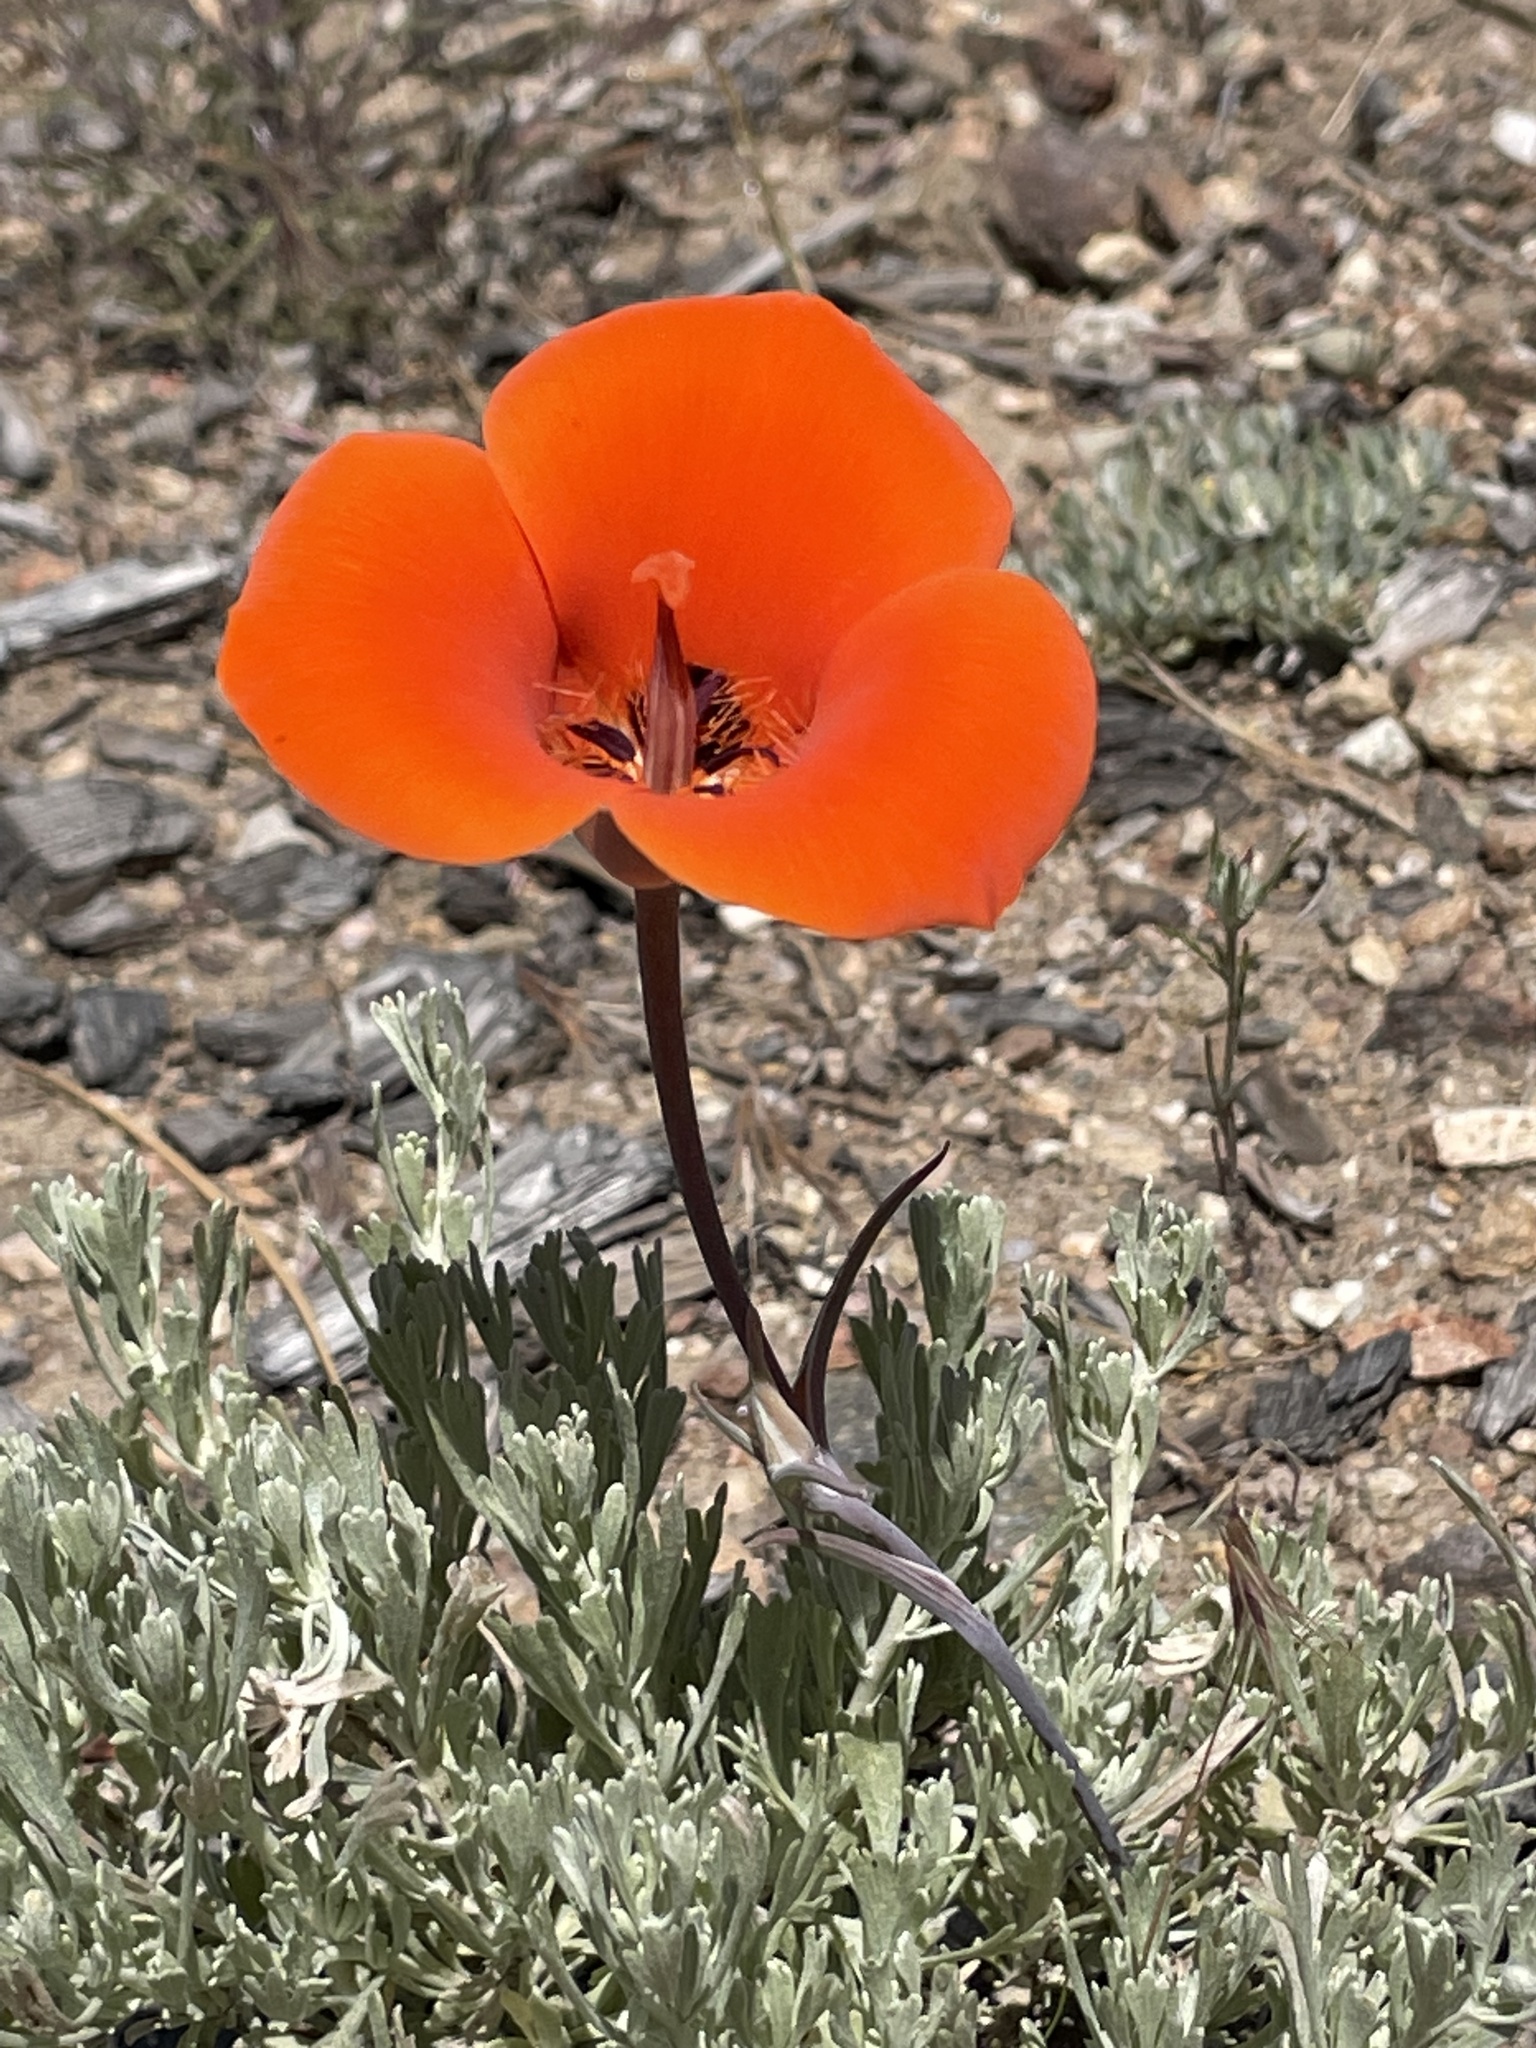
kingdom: Plantae
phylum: Tracheophyta
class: Liliopsida
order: Liliales
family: Liliaceae
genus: Calochortus
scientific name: Calochortus kennedyi
